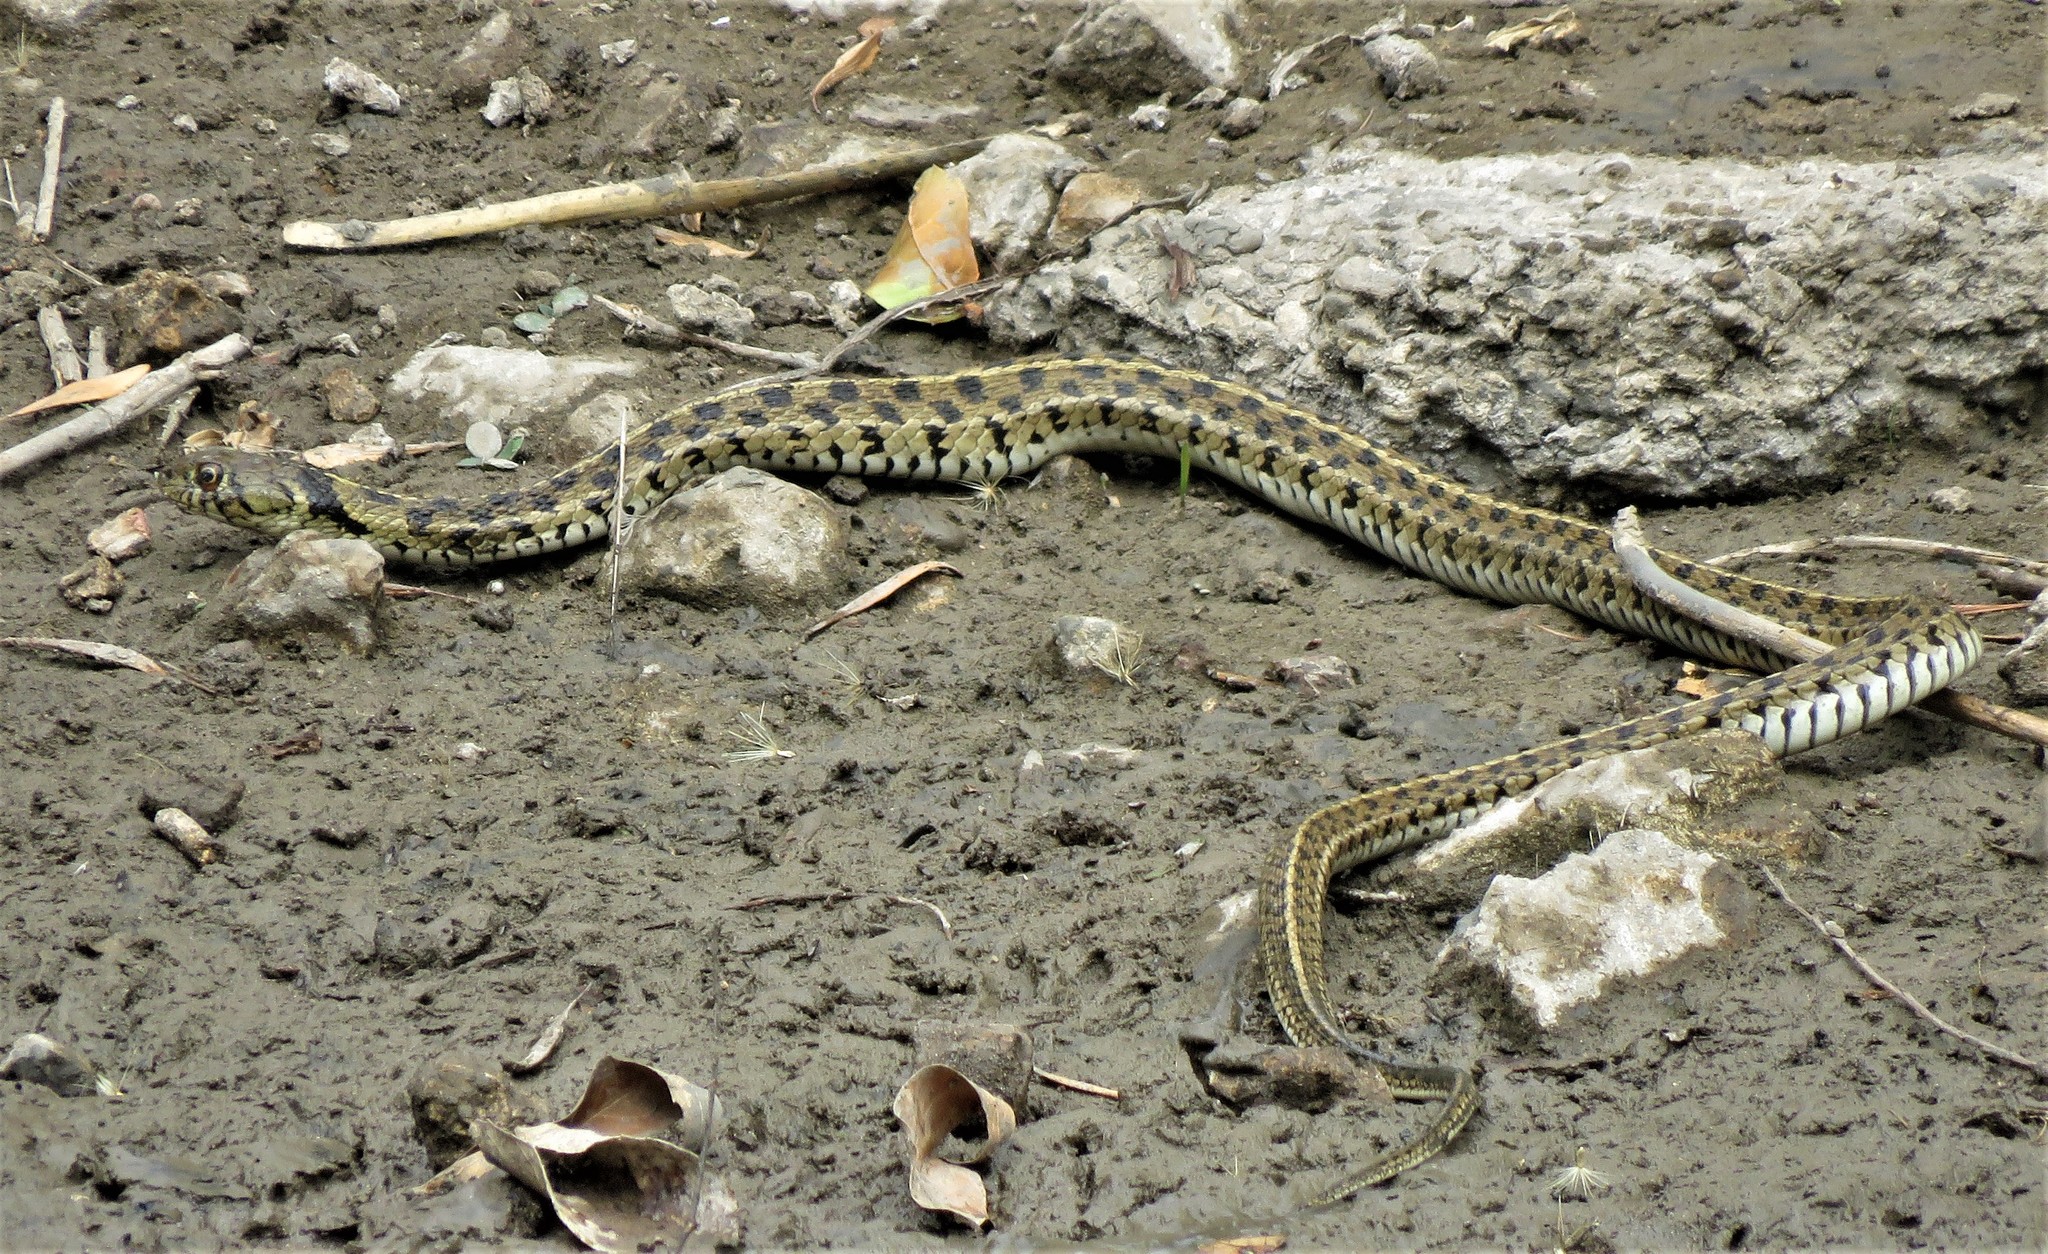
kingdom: Animalia
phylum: Chordata
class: Squamata
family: Colubridae
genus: Thamnophis
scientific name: Thamnophis marcianus
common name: Checkered garter snake
